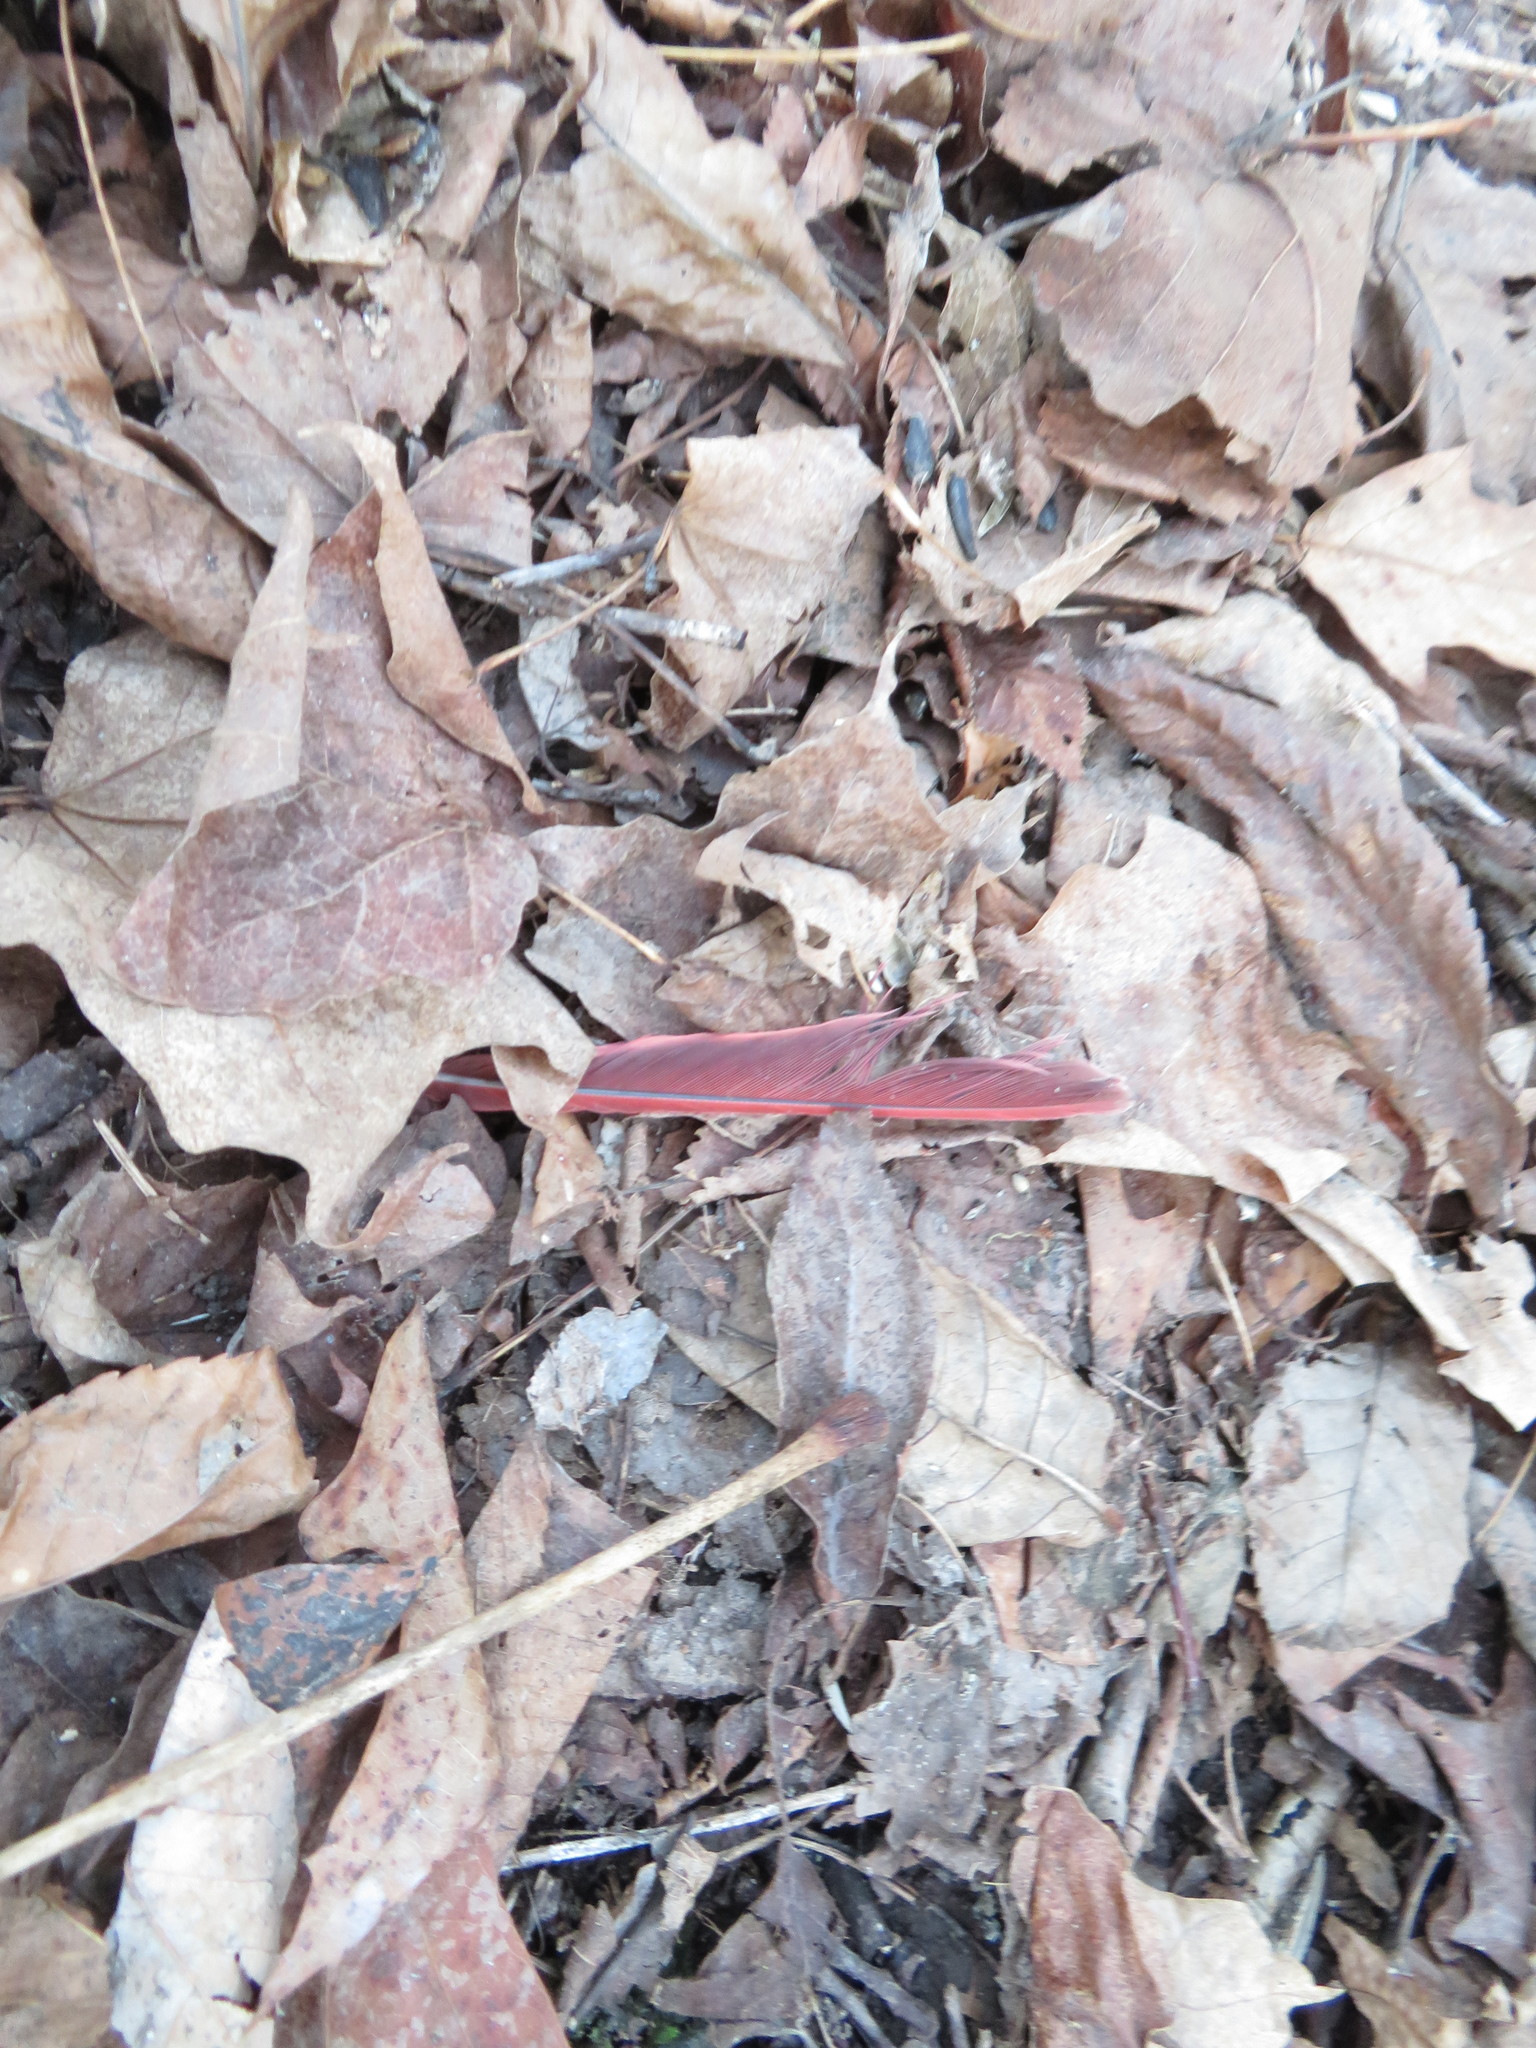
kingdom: Animalia
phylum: Chordata
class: Aves
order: Passeriformes
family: Cardinalidae
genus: Cardinalis
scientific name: Cardinalis cardinalis
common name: Northern cardinal
